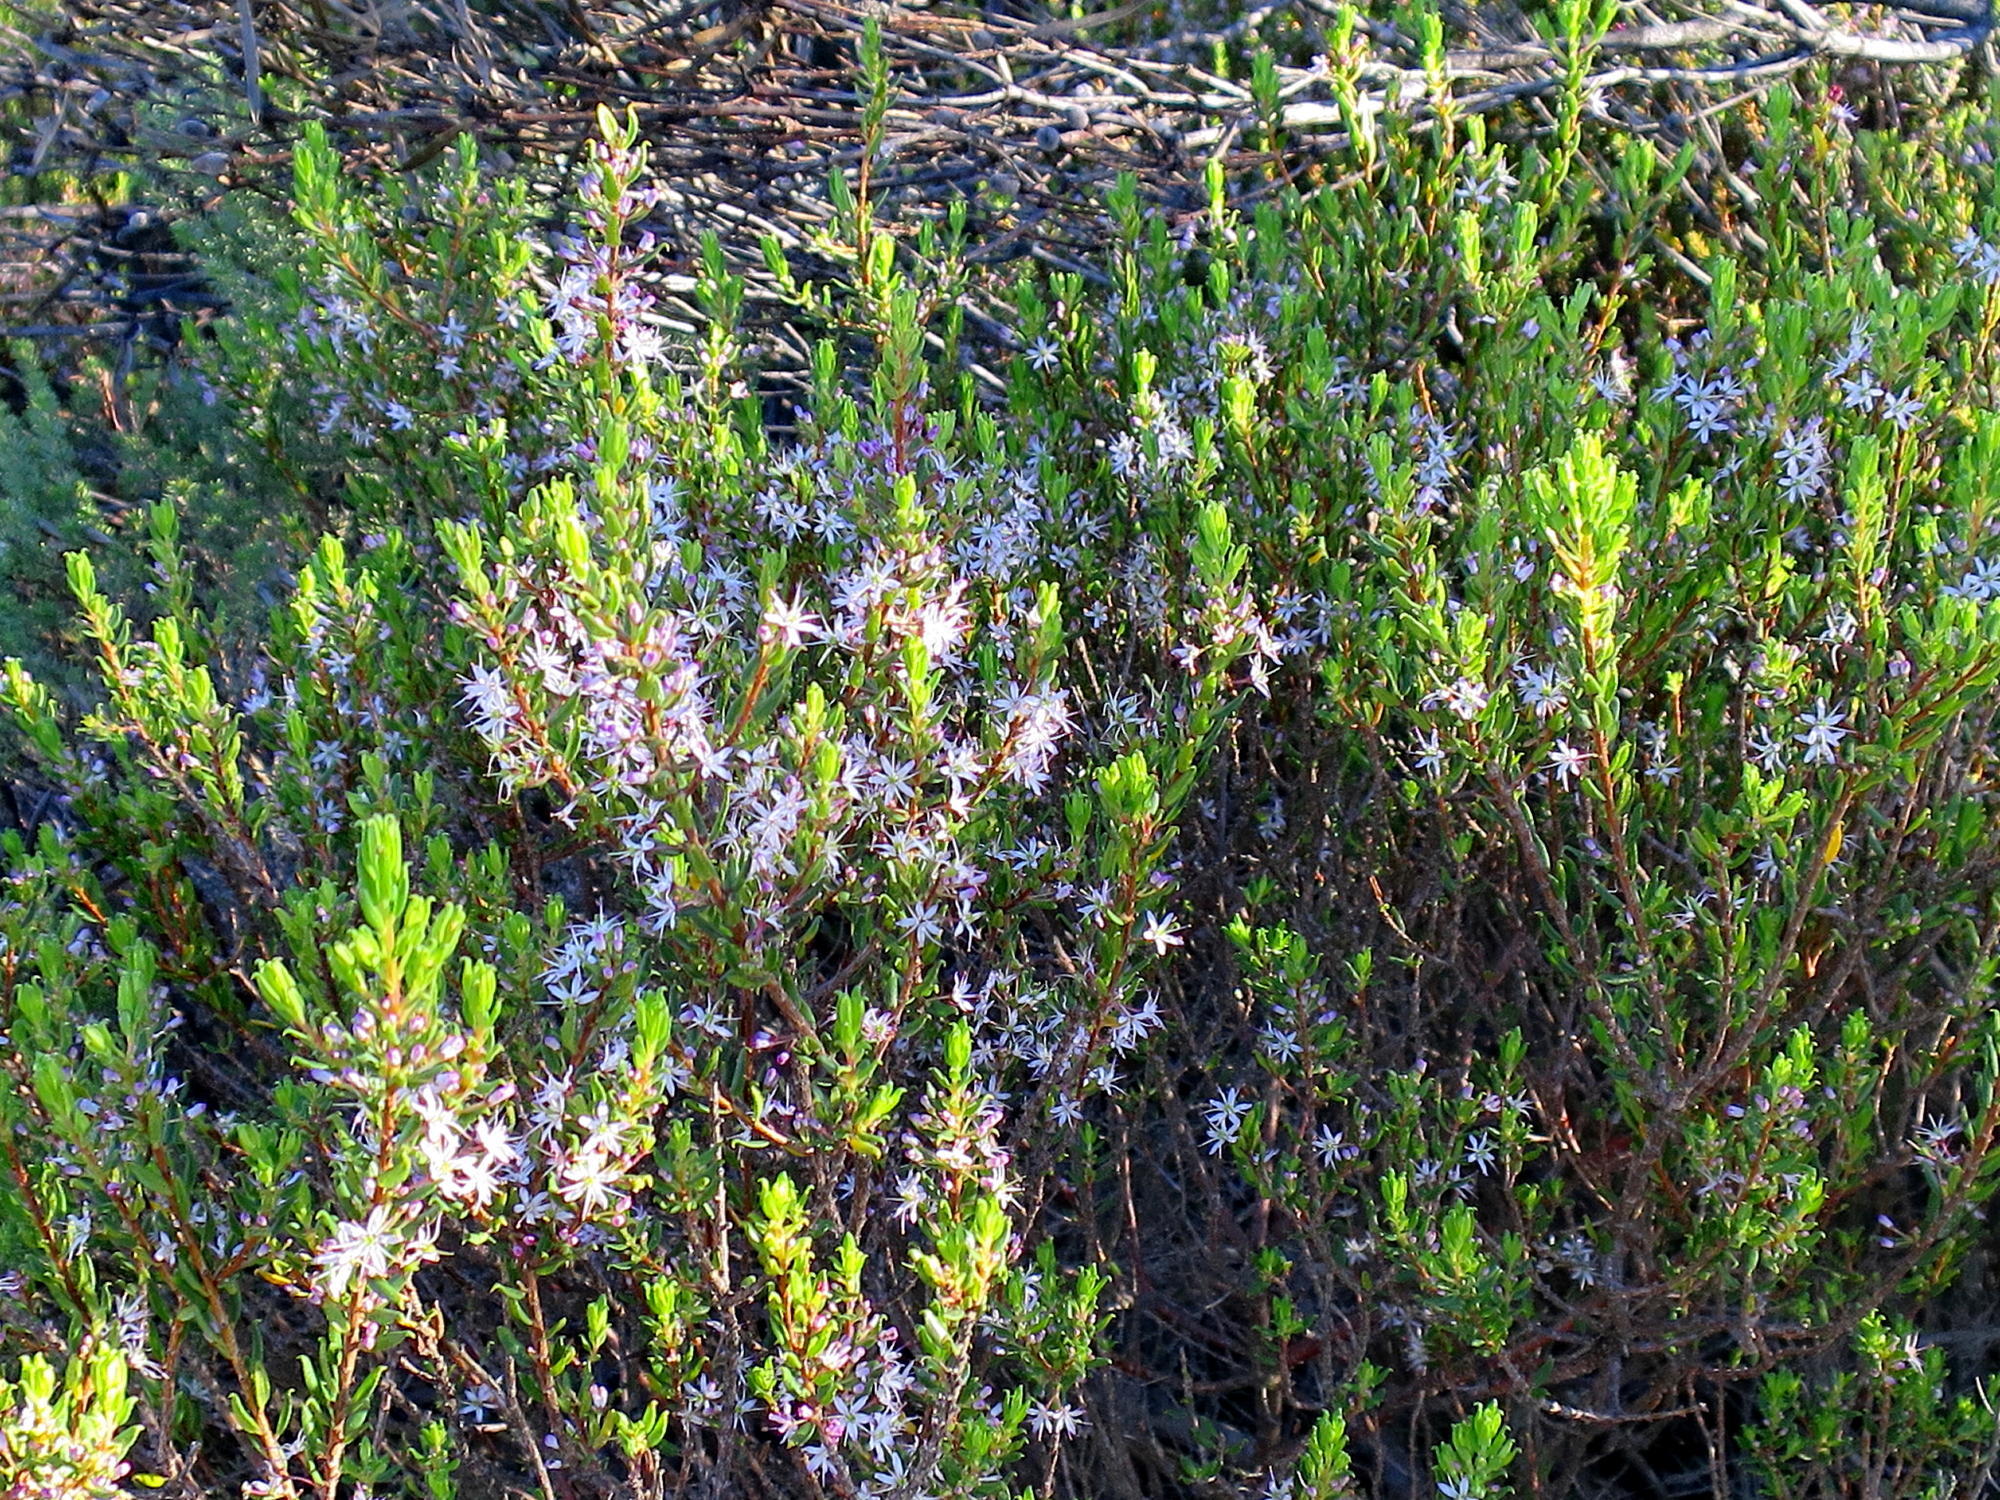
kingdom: Plantae
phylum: Tracheophyta
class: Magnoliopsida
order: Sapindales
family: Rutaceae
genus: Agathosma
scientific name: Agathosma ovata
